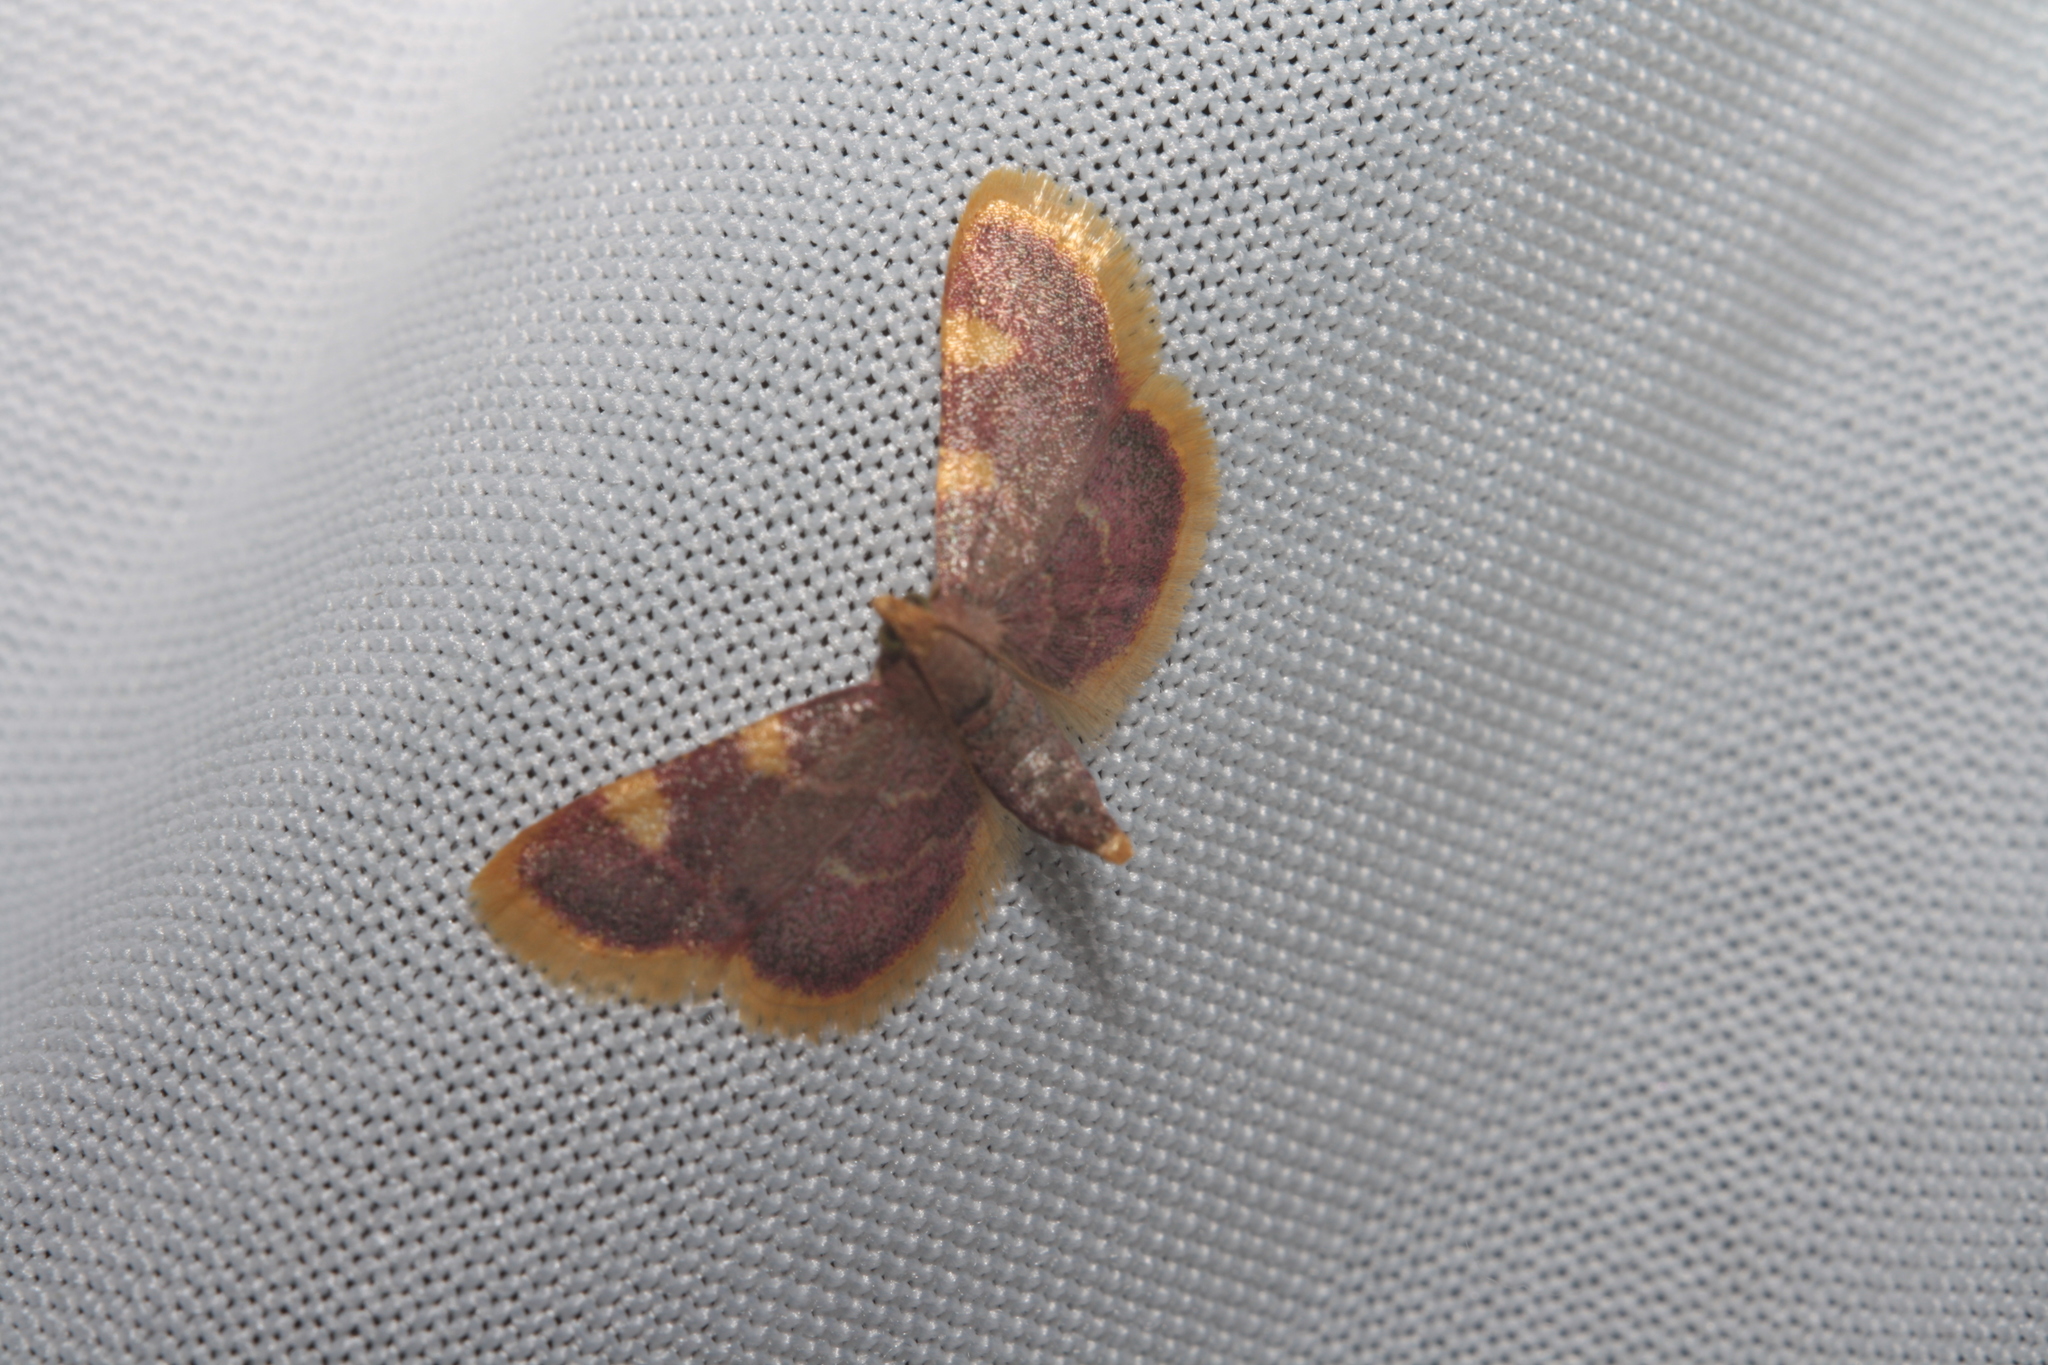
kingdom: Animalia
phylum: Arthropoda
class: Insecta
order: Lepidoptera
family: Pyralidae
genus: Hypsopygia
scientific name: Hypsopygia costalis
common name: Gold triangle
